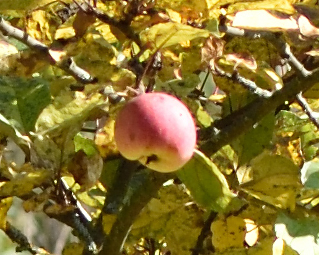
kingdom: Plantae
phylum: Tracheophyta
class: Magnoliopsida
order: Rosales
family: Rosaceae
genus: Malus
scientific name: Malus domestica
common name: Apple
